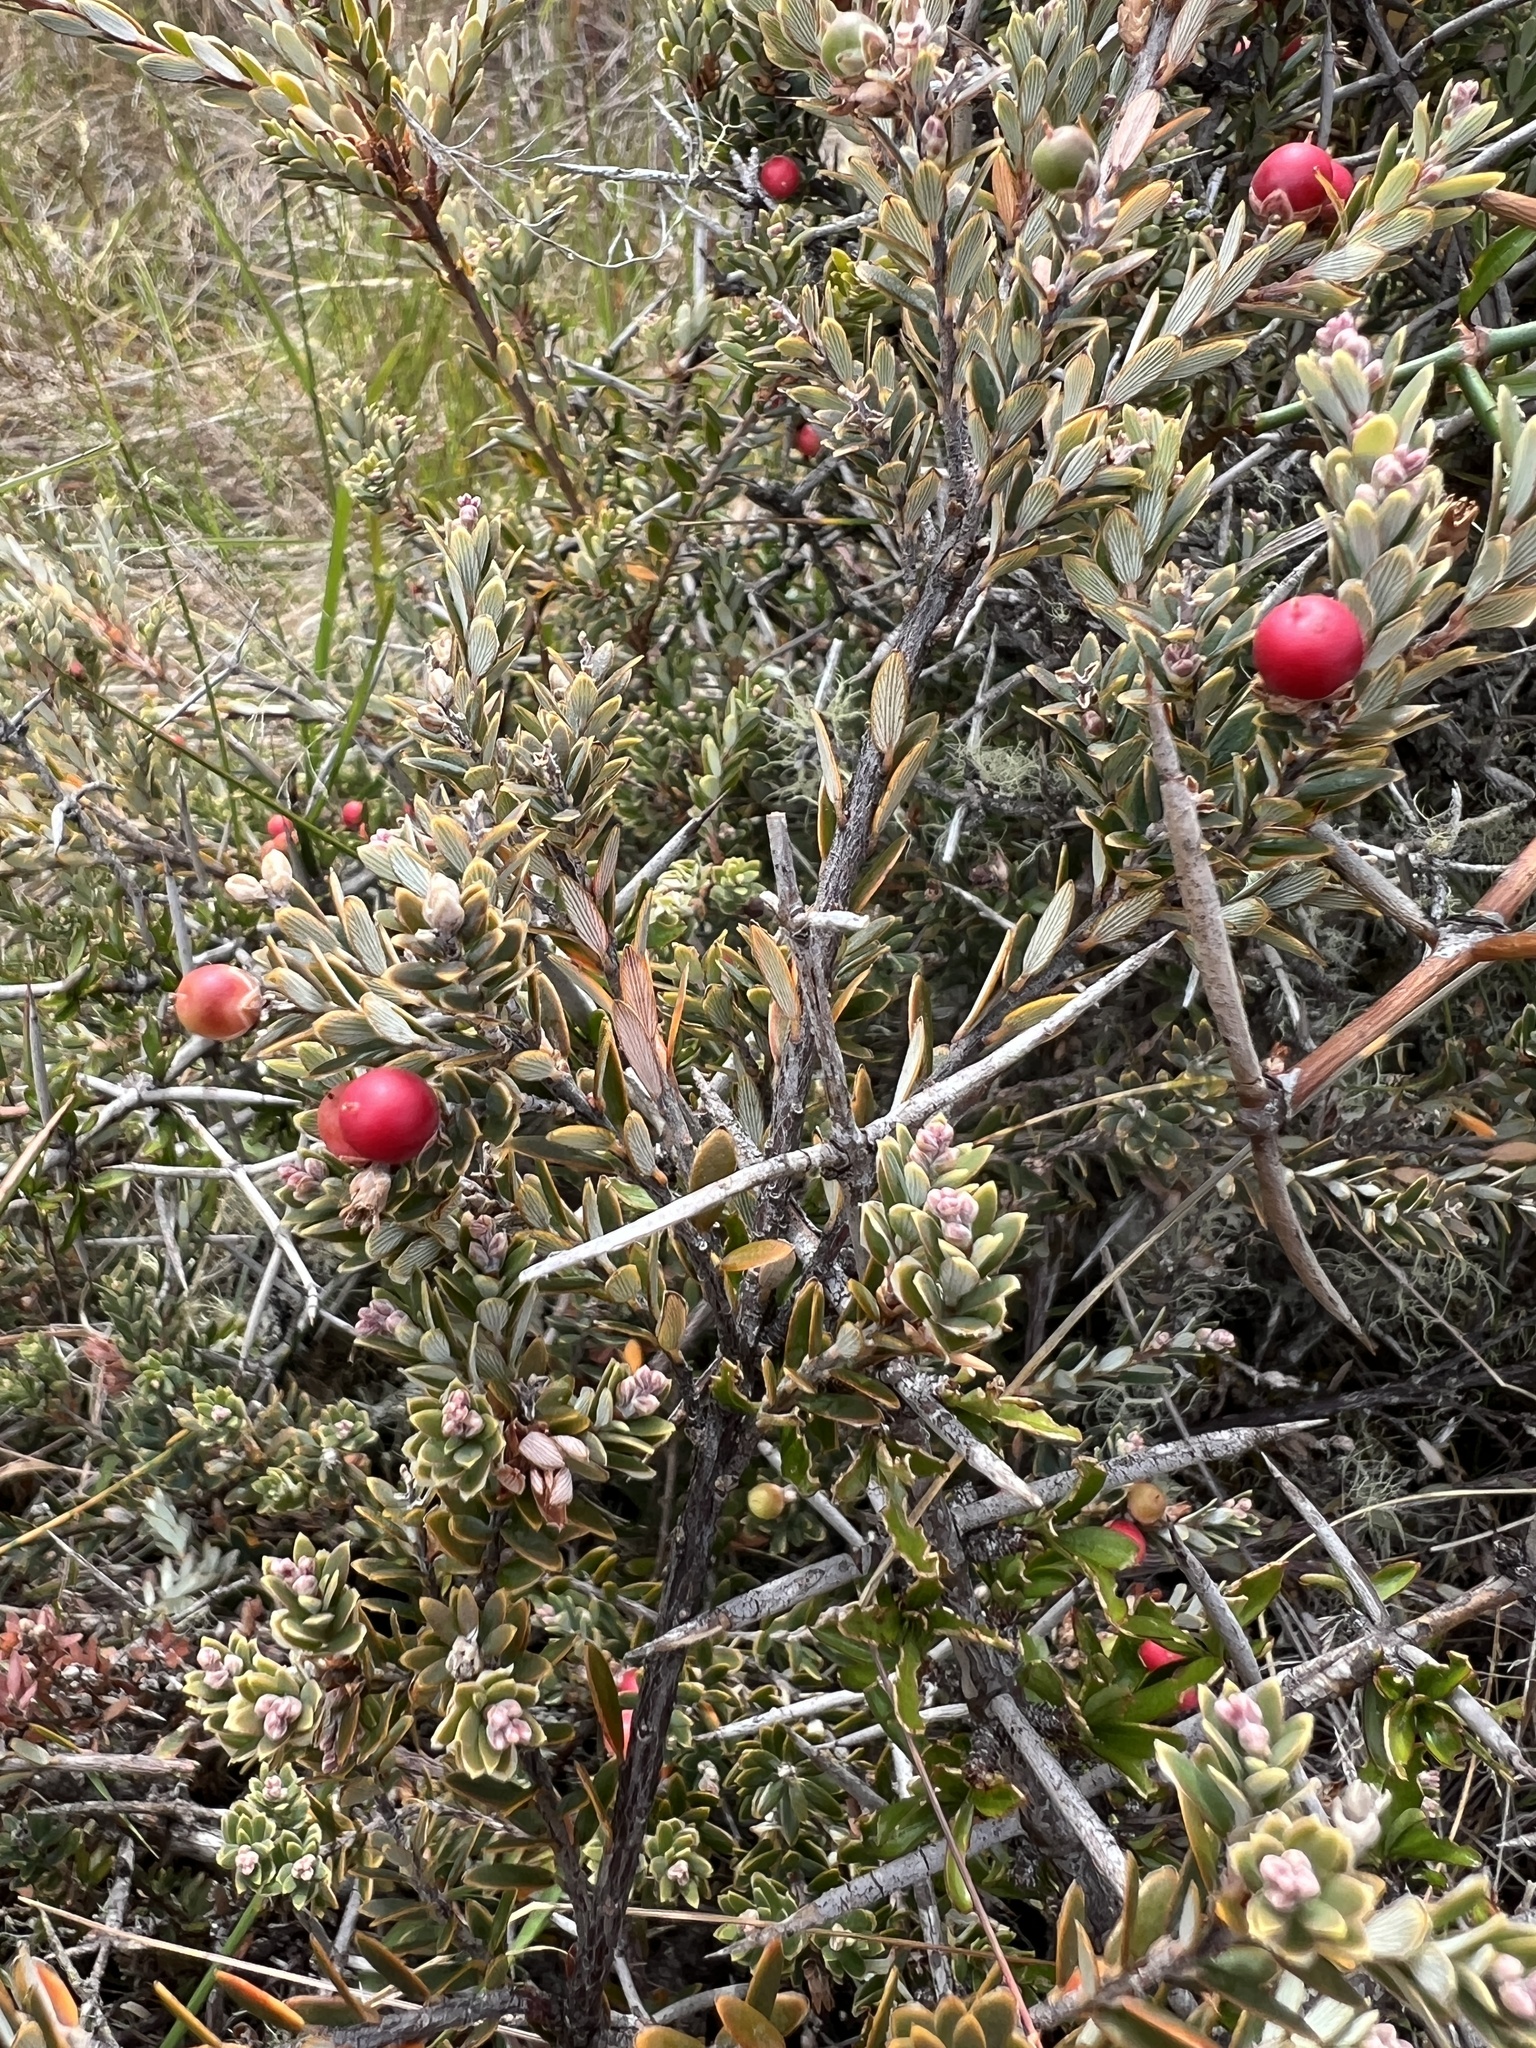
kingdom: Plantae
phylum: Tracheophyta
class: Magnoliopsida
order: Ericales
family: Ericaceae
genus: Acrothamnus
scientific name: Acrothamnus colensoi
